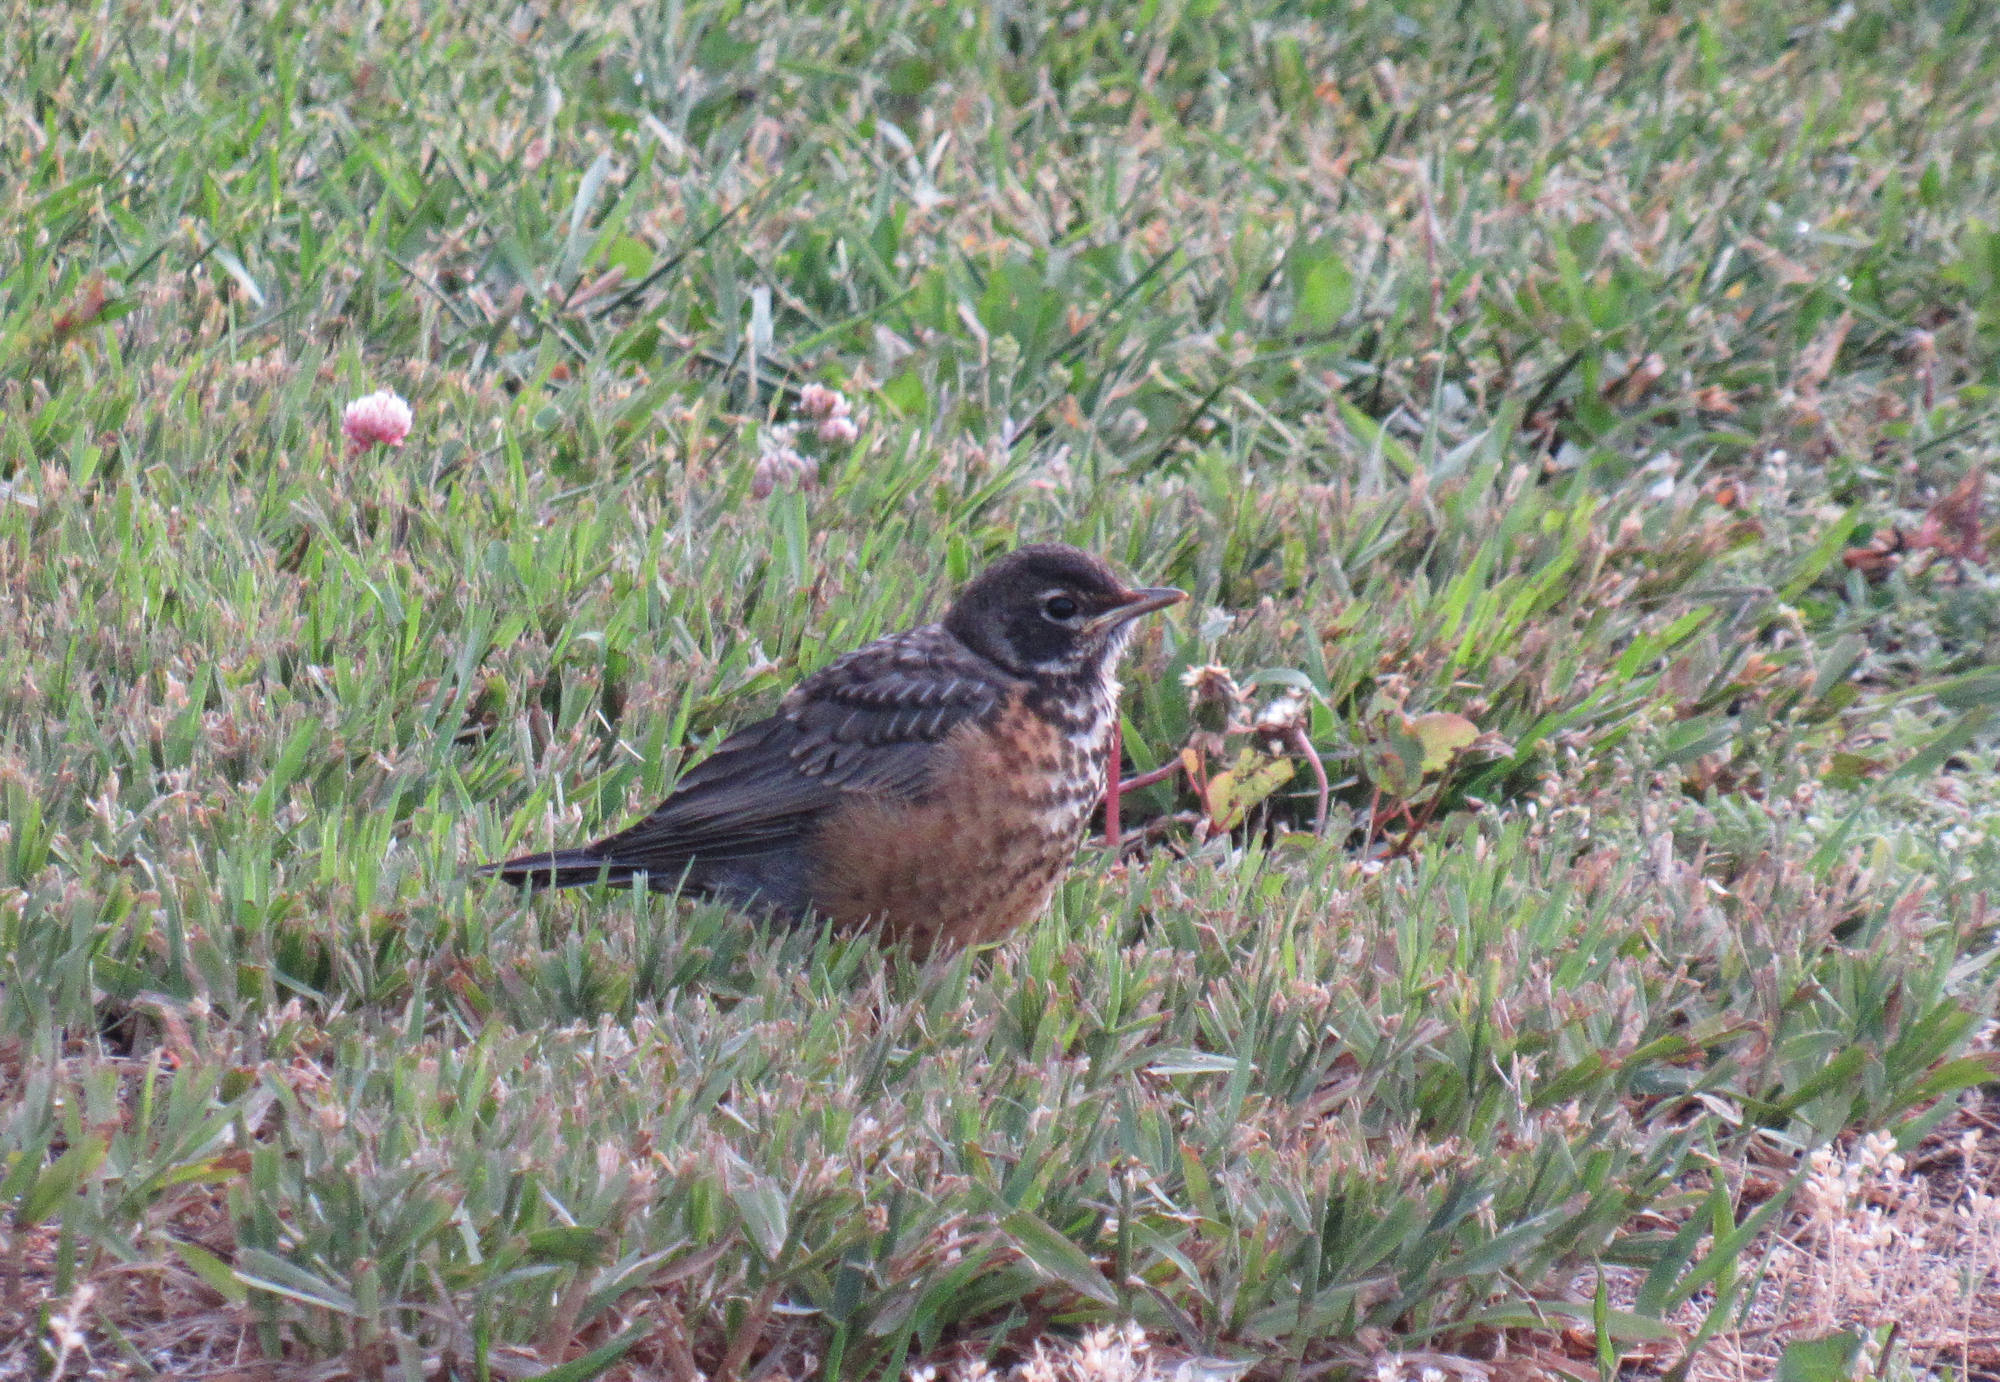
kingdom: Animalia
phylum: Chordata
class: Aves
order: Passeriformes
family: Turdidae
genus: Turdus
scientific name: Turdus migratorius
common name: American robin
